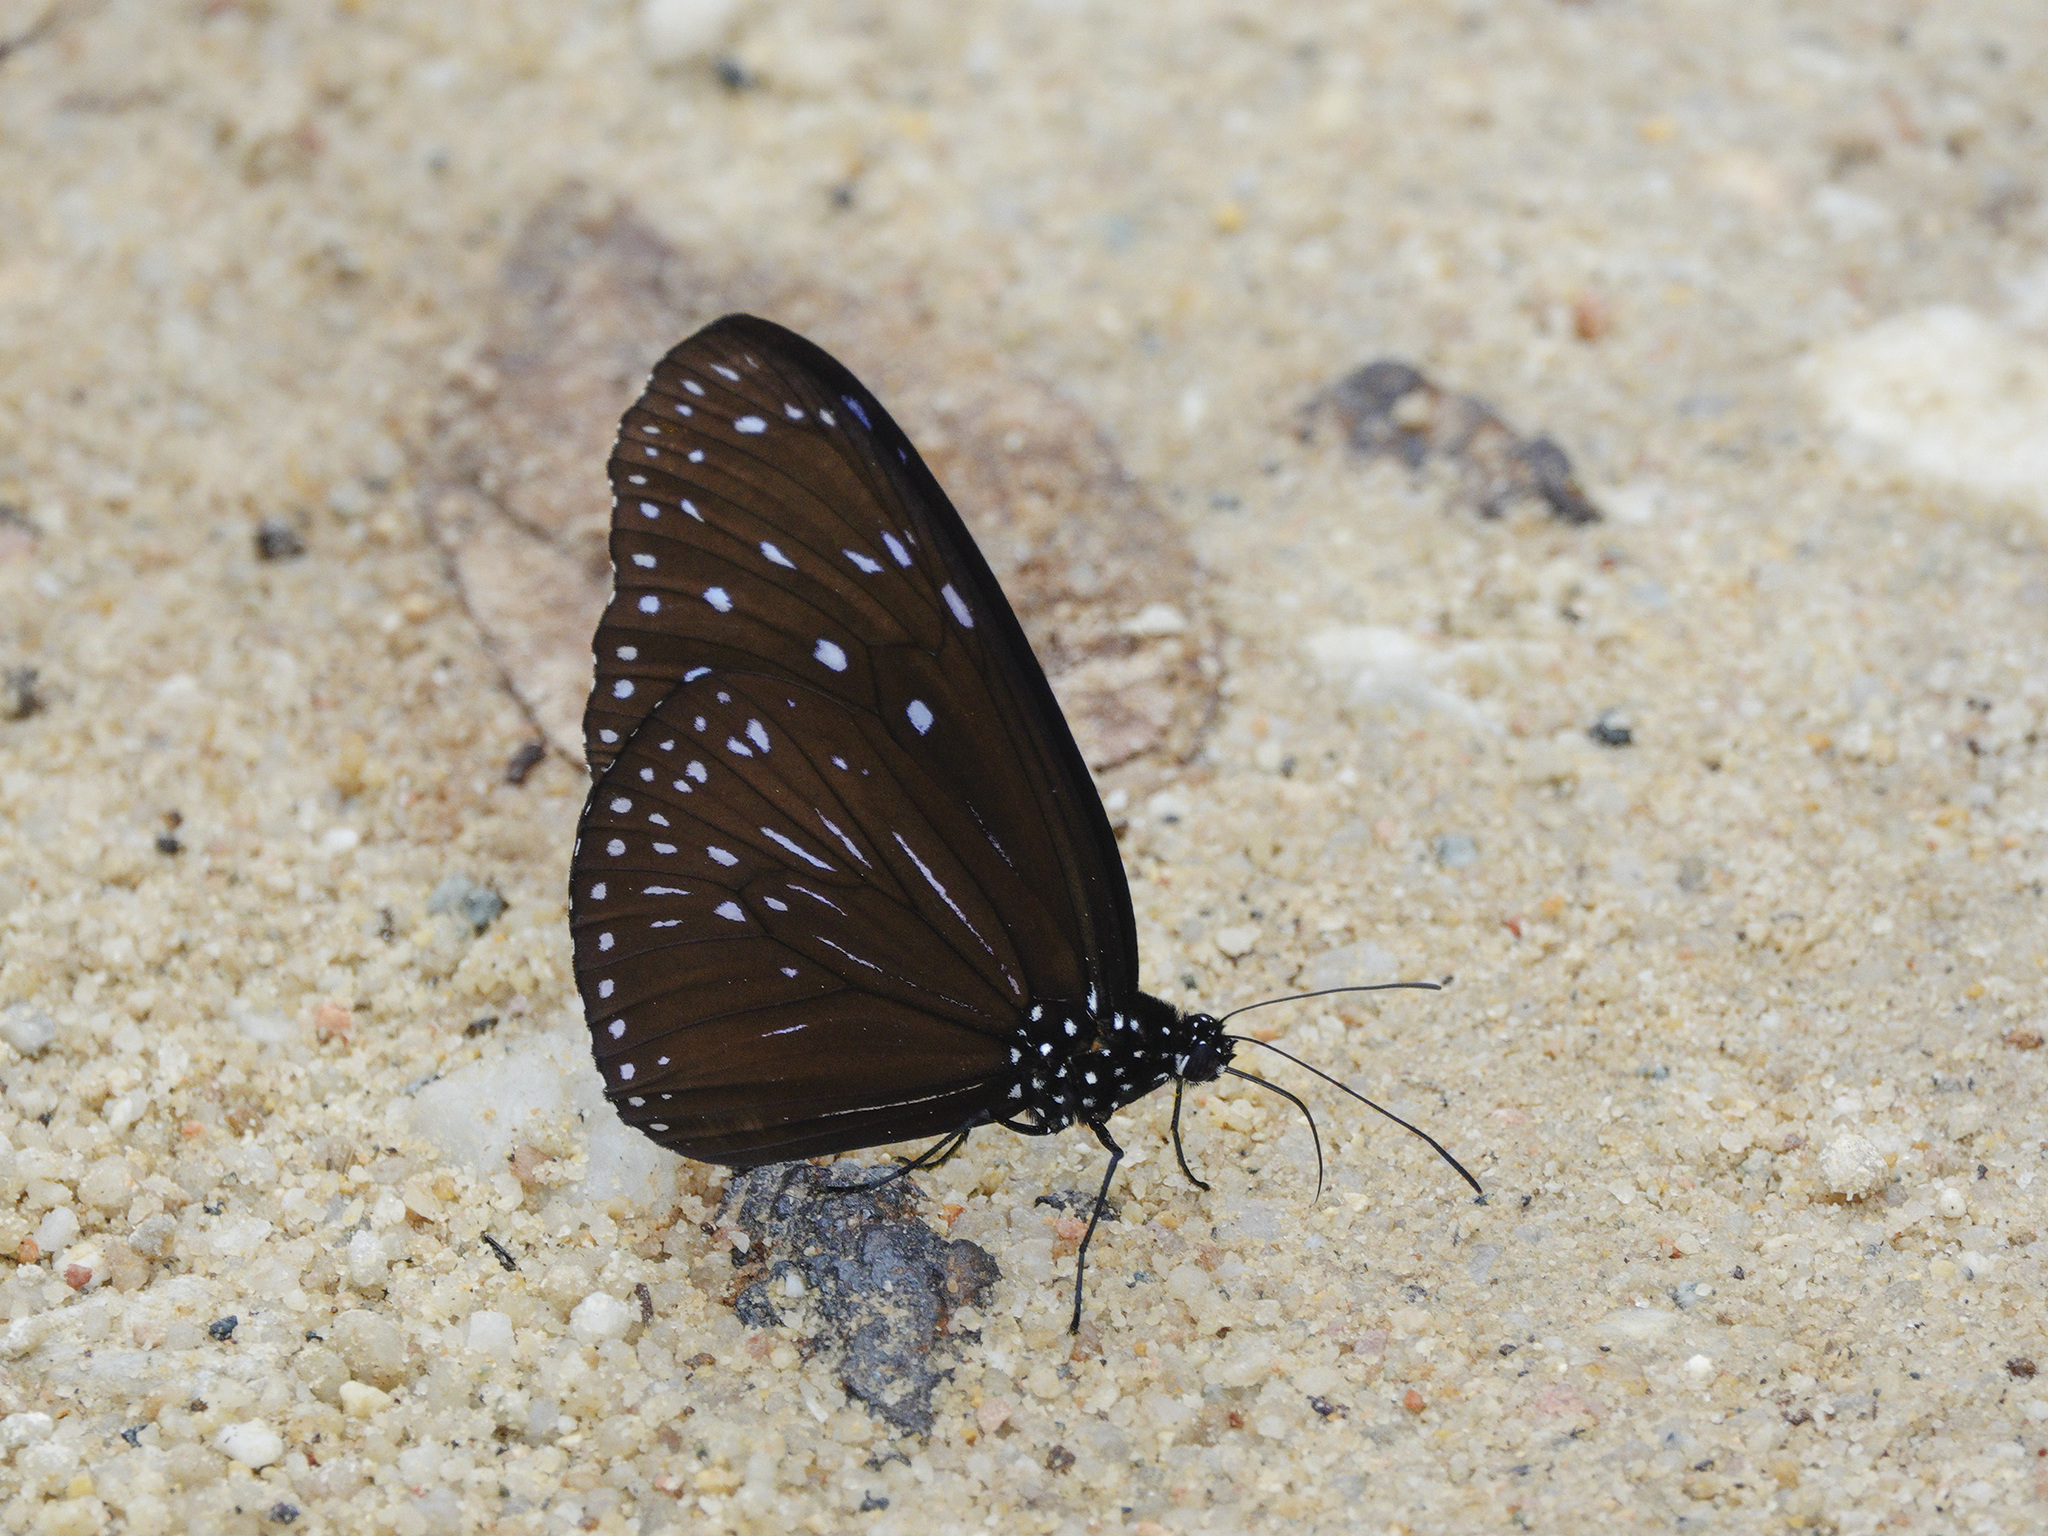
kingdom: Animalia
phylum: Arthropoda
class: Insecta
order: Lepidoptera
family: Nymphalidae
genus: Euploea
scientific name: Euploea mulciber
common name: Striped blue crow butterfly
